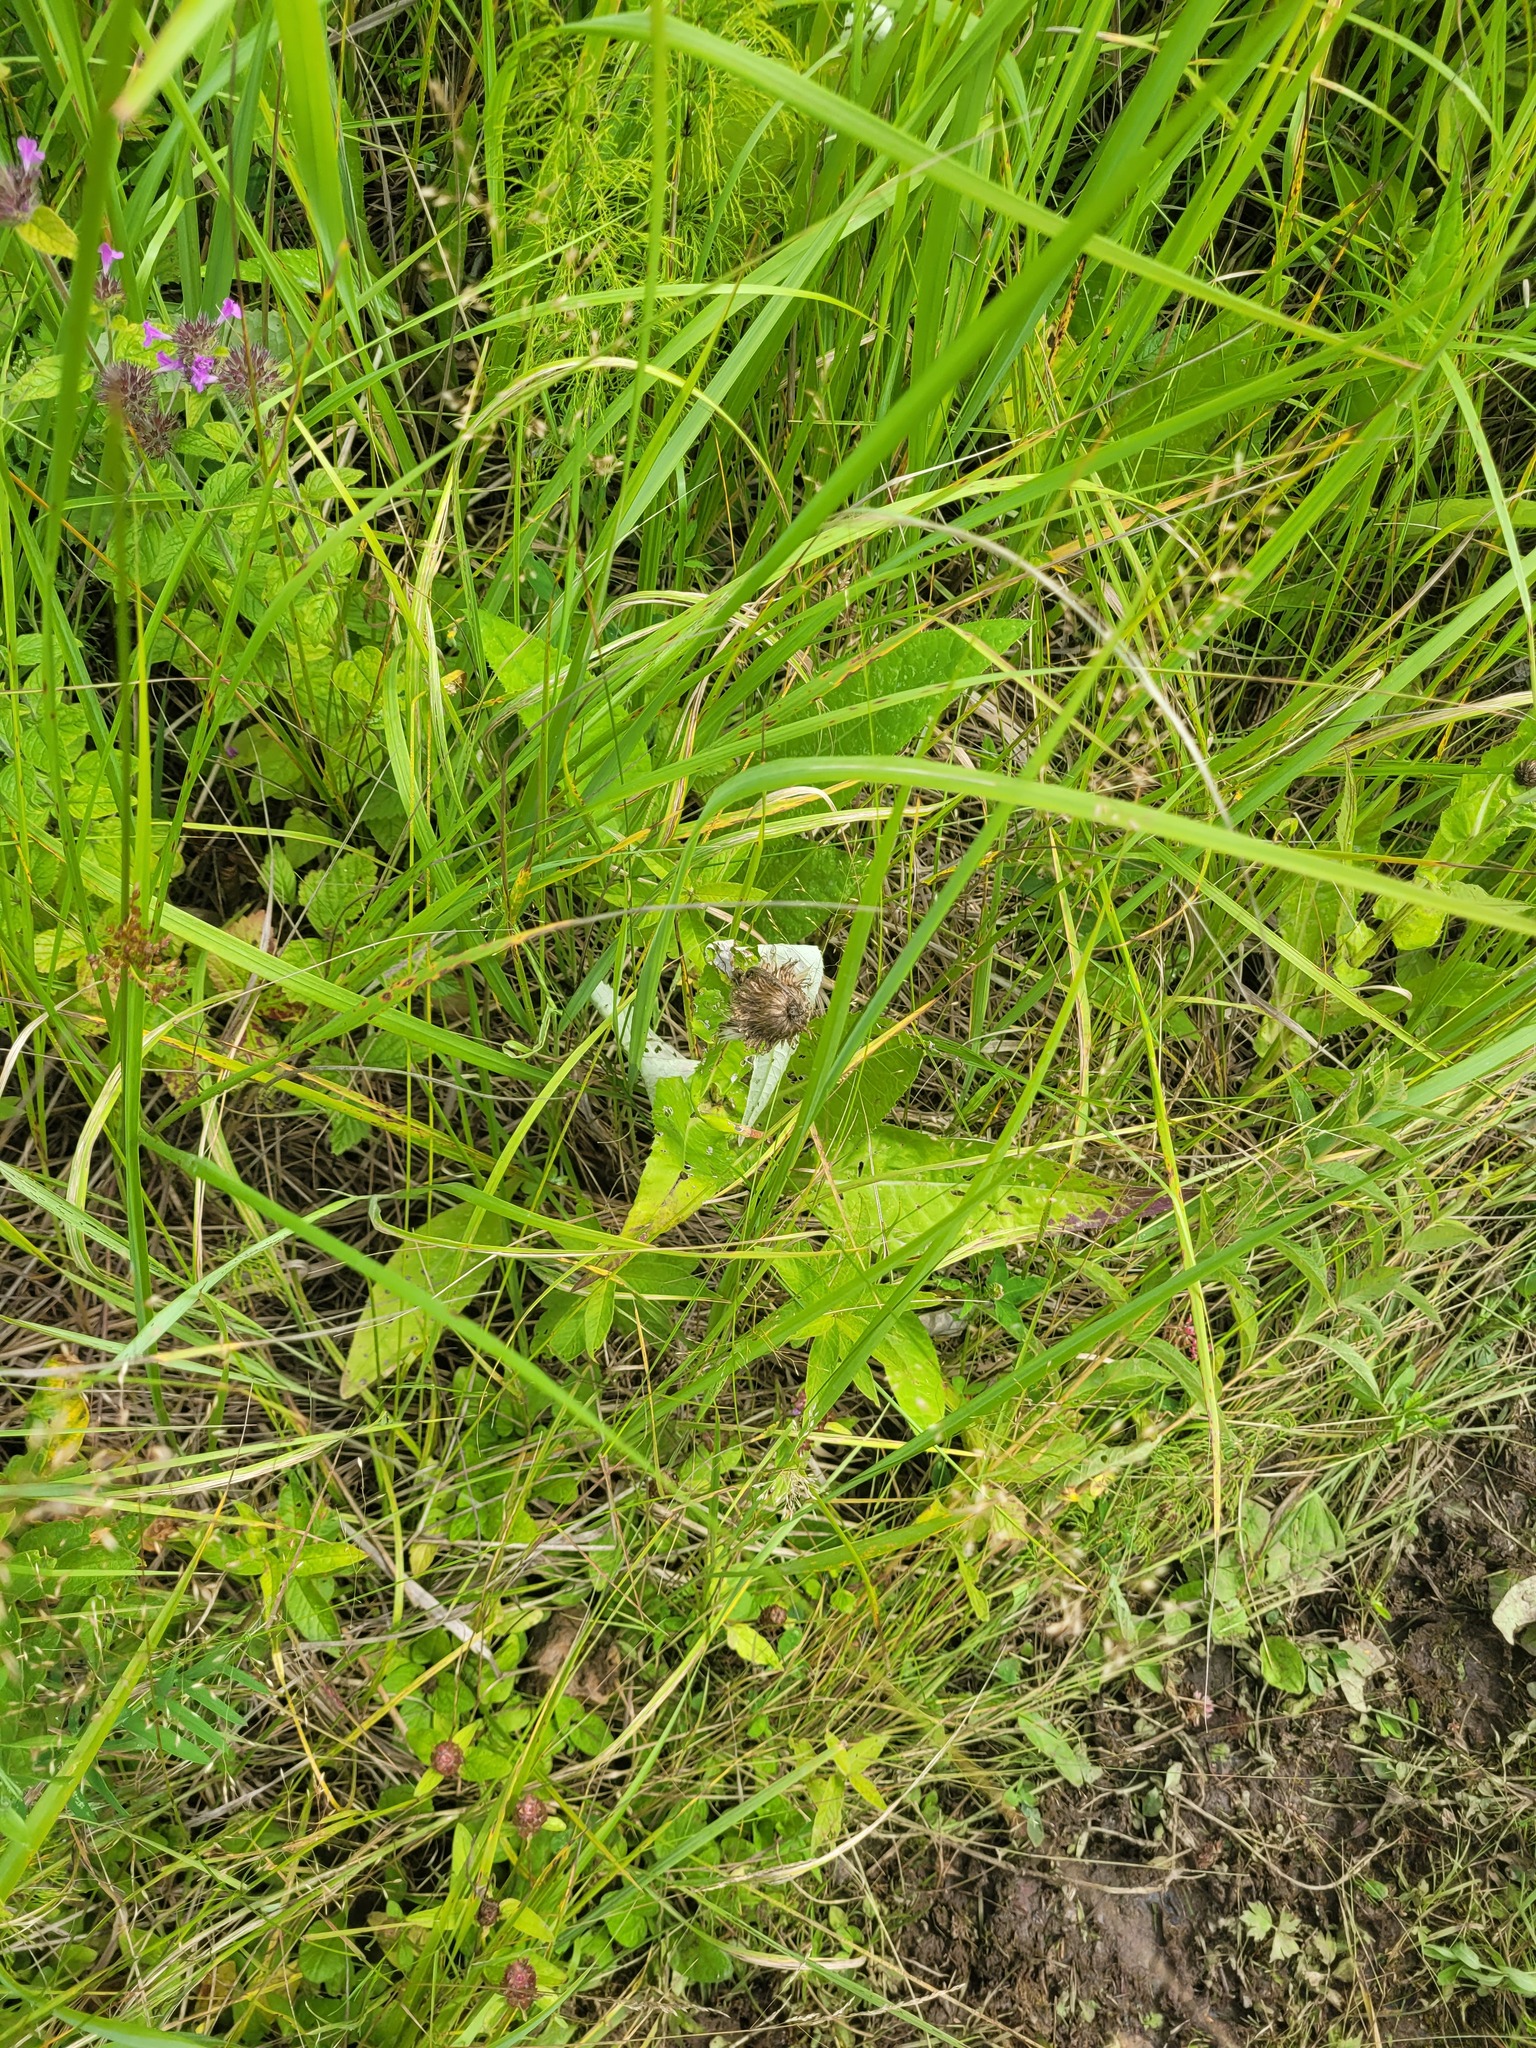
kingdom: Plantae
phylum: Tracheophyta
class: Magnoliopsida
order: Asterales
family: Asteraceae
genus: Cirsium
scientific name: Cirsium heterophyllum
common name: Melancholy thistle
